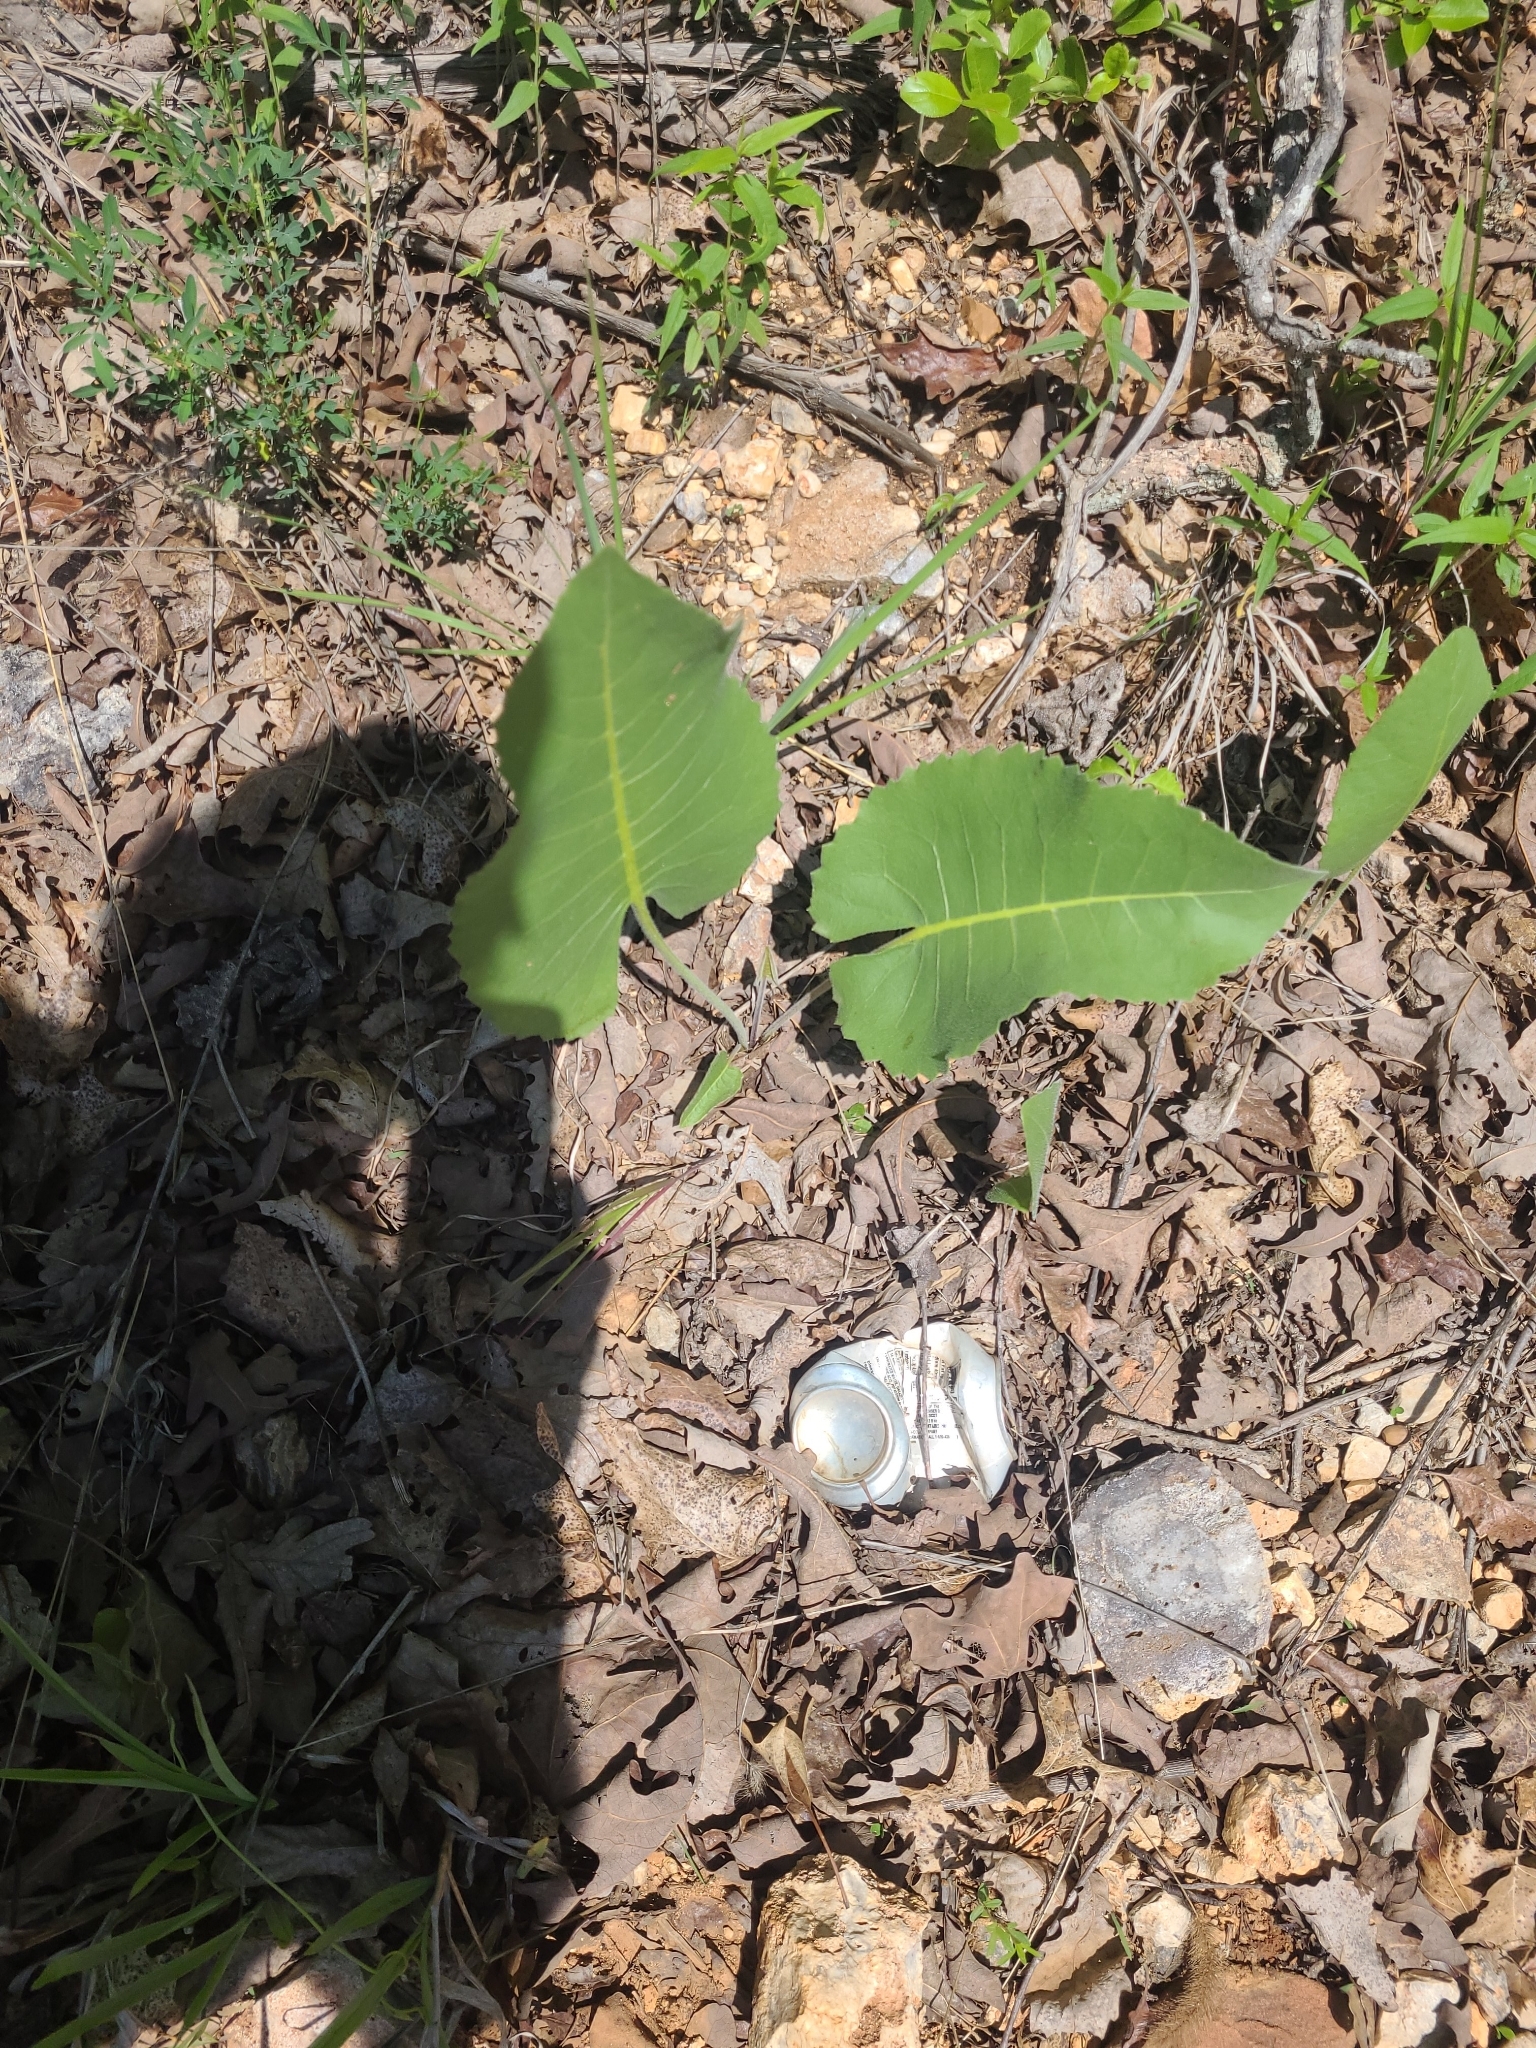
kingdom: Plantae
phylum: Tracheophyta
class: Magnoliopsida
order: Asterales
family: Asteraceae
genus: Silphium
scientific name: Silphium terebinthinaceum
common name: Basal-leaf rosinweed
